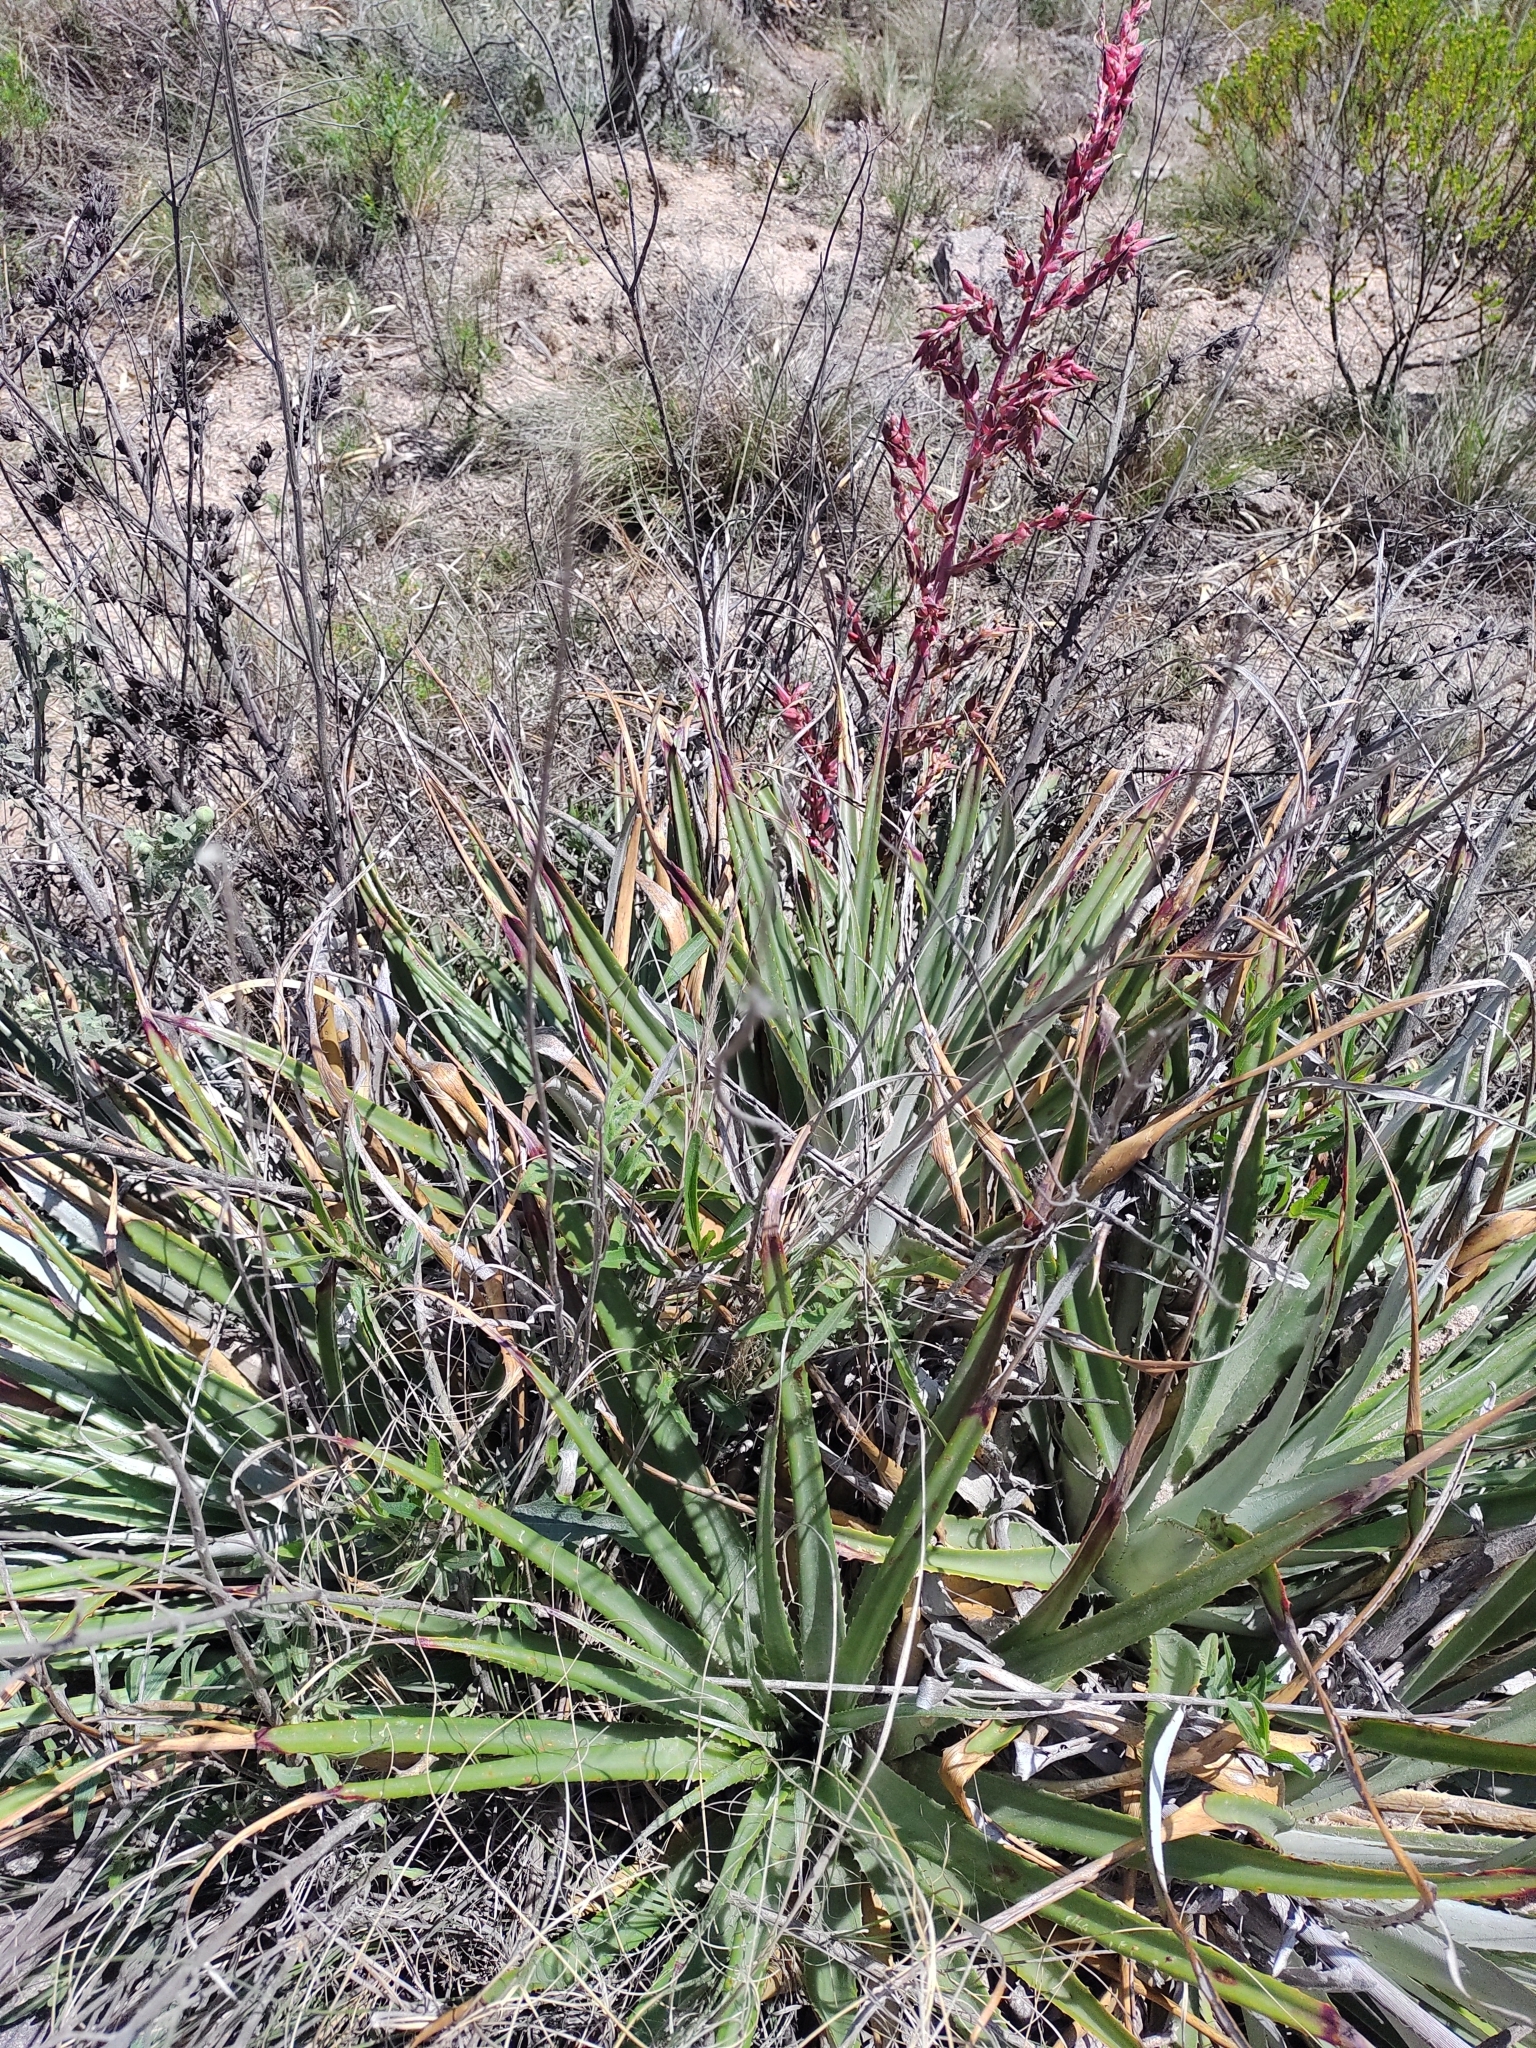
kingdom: Plantae
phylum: Tracheophyta
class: Liliopsida
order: Poales
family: Bromeliaceae
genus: Puya
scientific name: Puya spathacea
